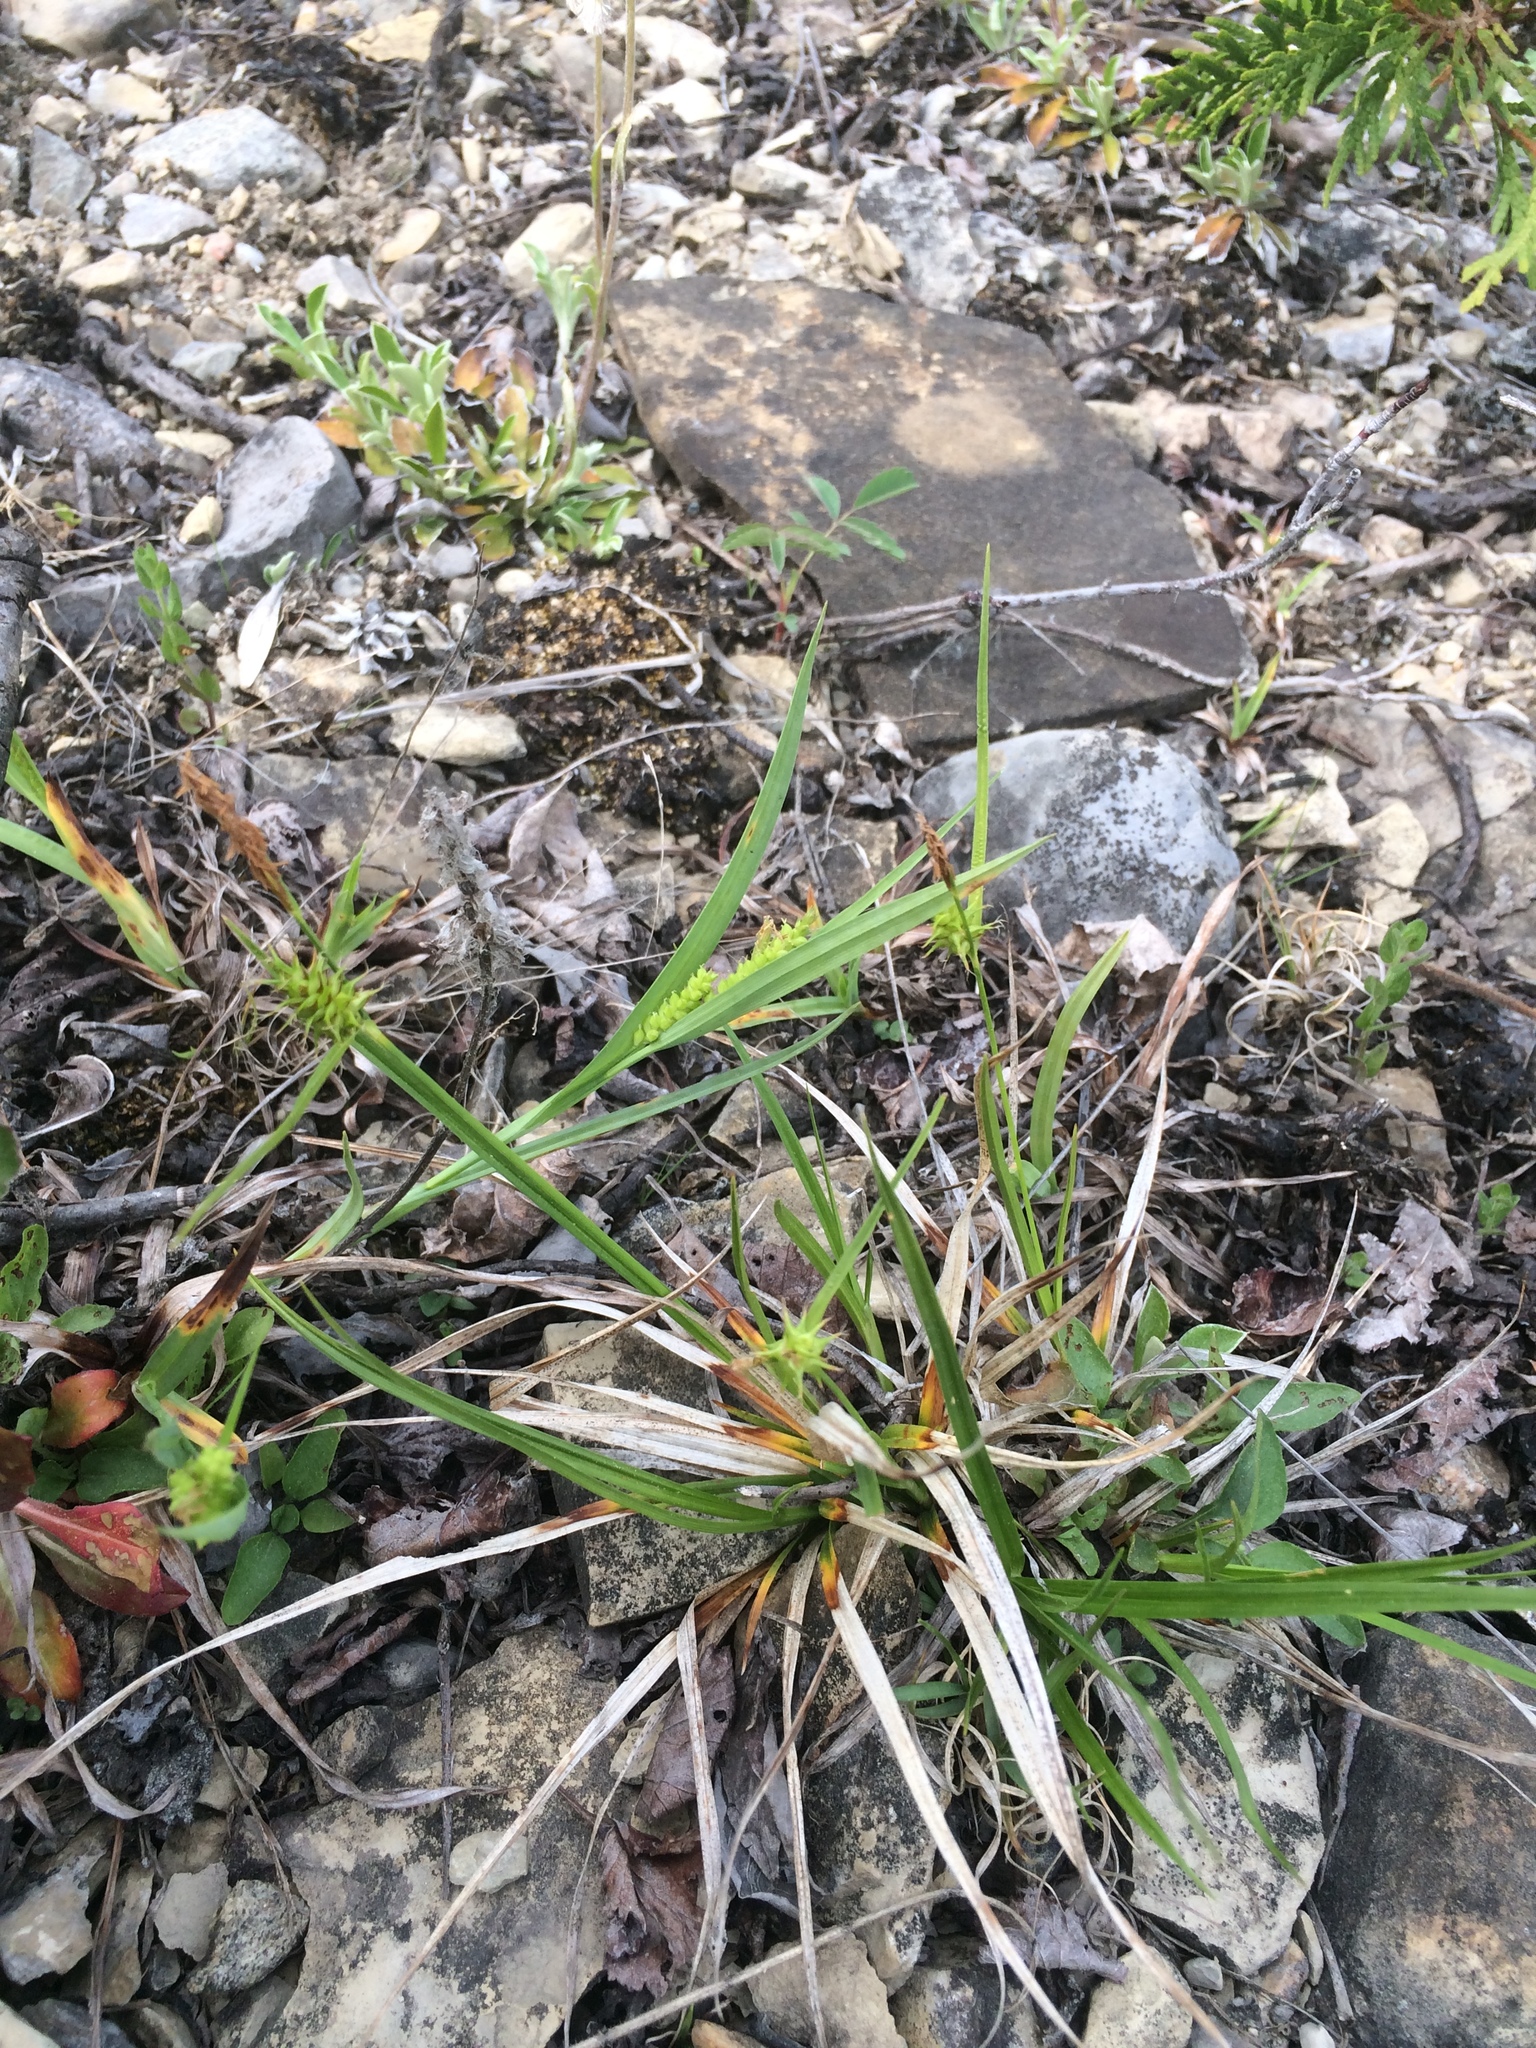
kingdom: Plantae
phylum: Tracheophyta
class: Liliopsida
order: Poales
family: Cyperaceae
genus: Carex
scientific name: Carex flava
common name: Large yellow-sedge
